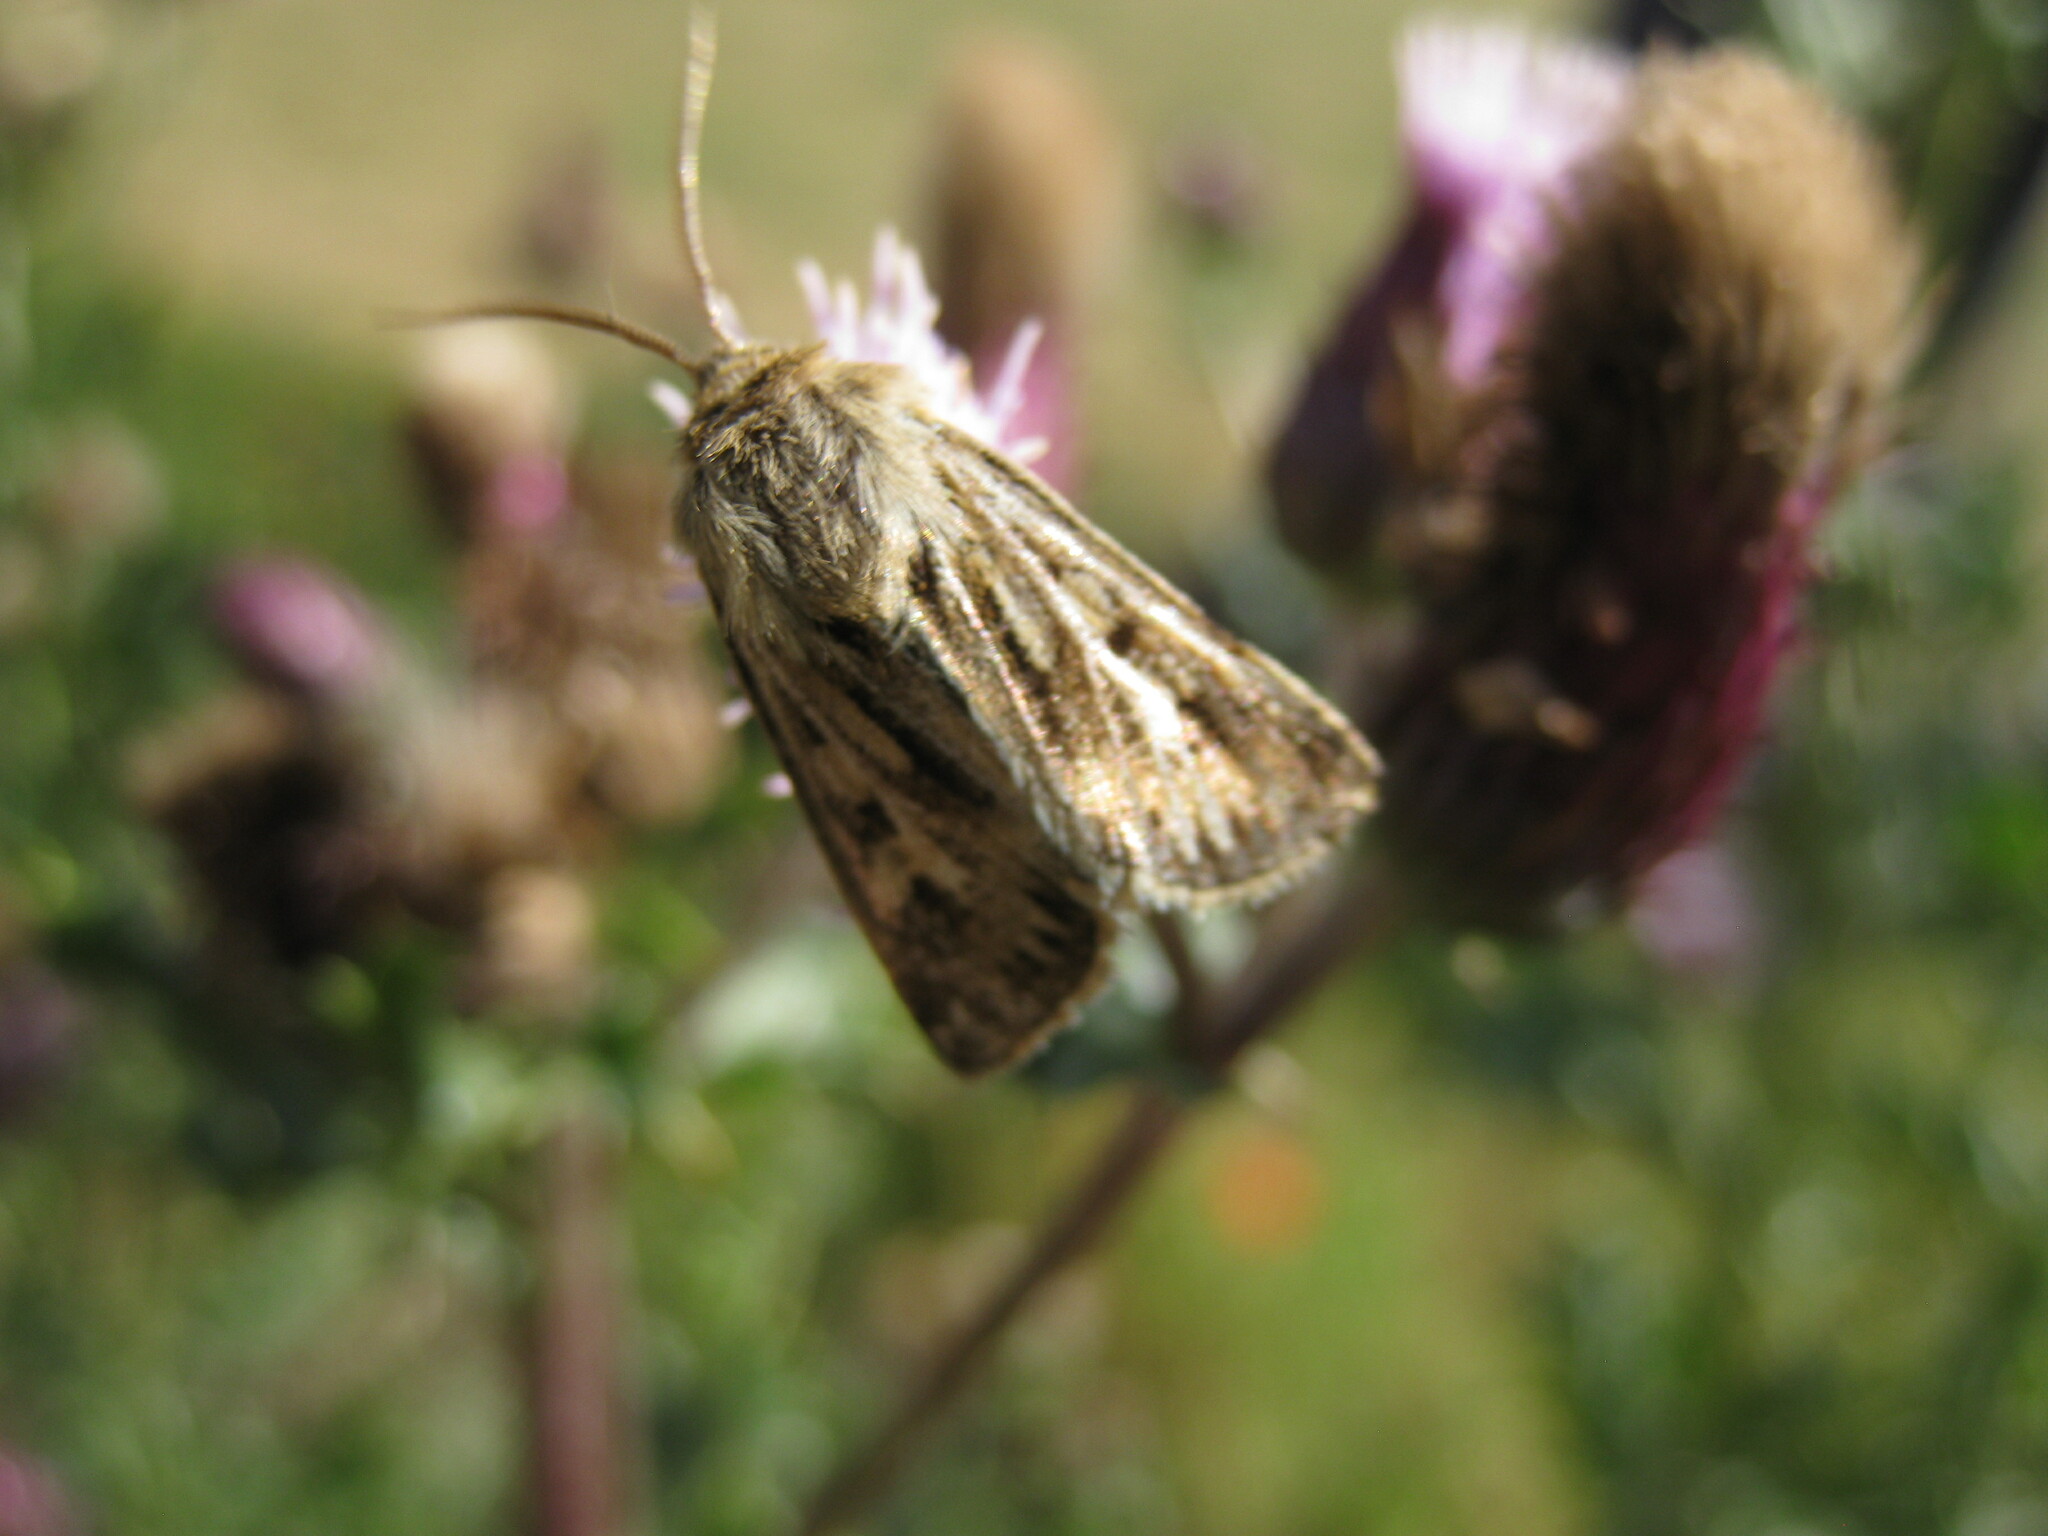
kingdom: Animalia
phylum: Arthropoda
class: Insecta
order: Lepidoptera
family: Noctuidae
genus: Cerapteryx
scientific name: Cerapteryx graminis
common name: Antler moth
